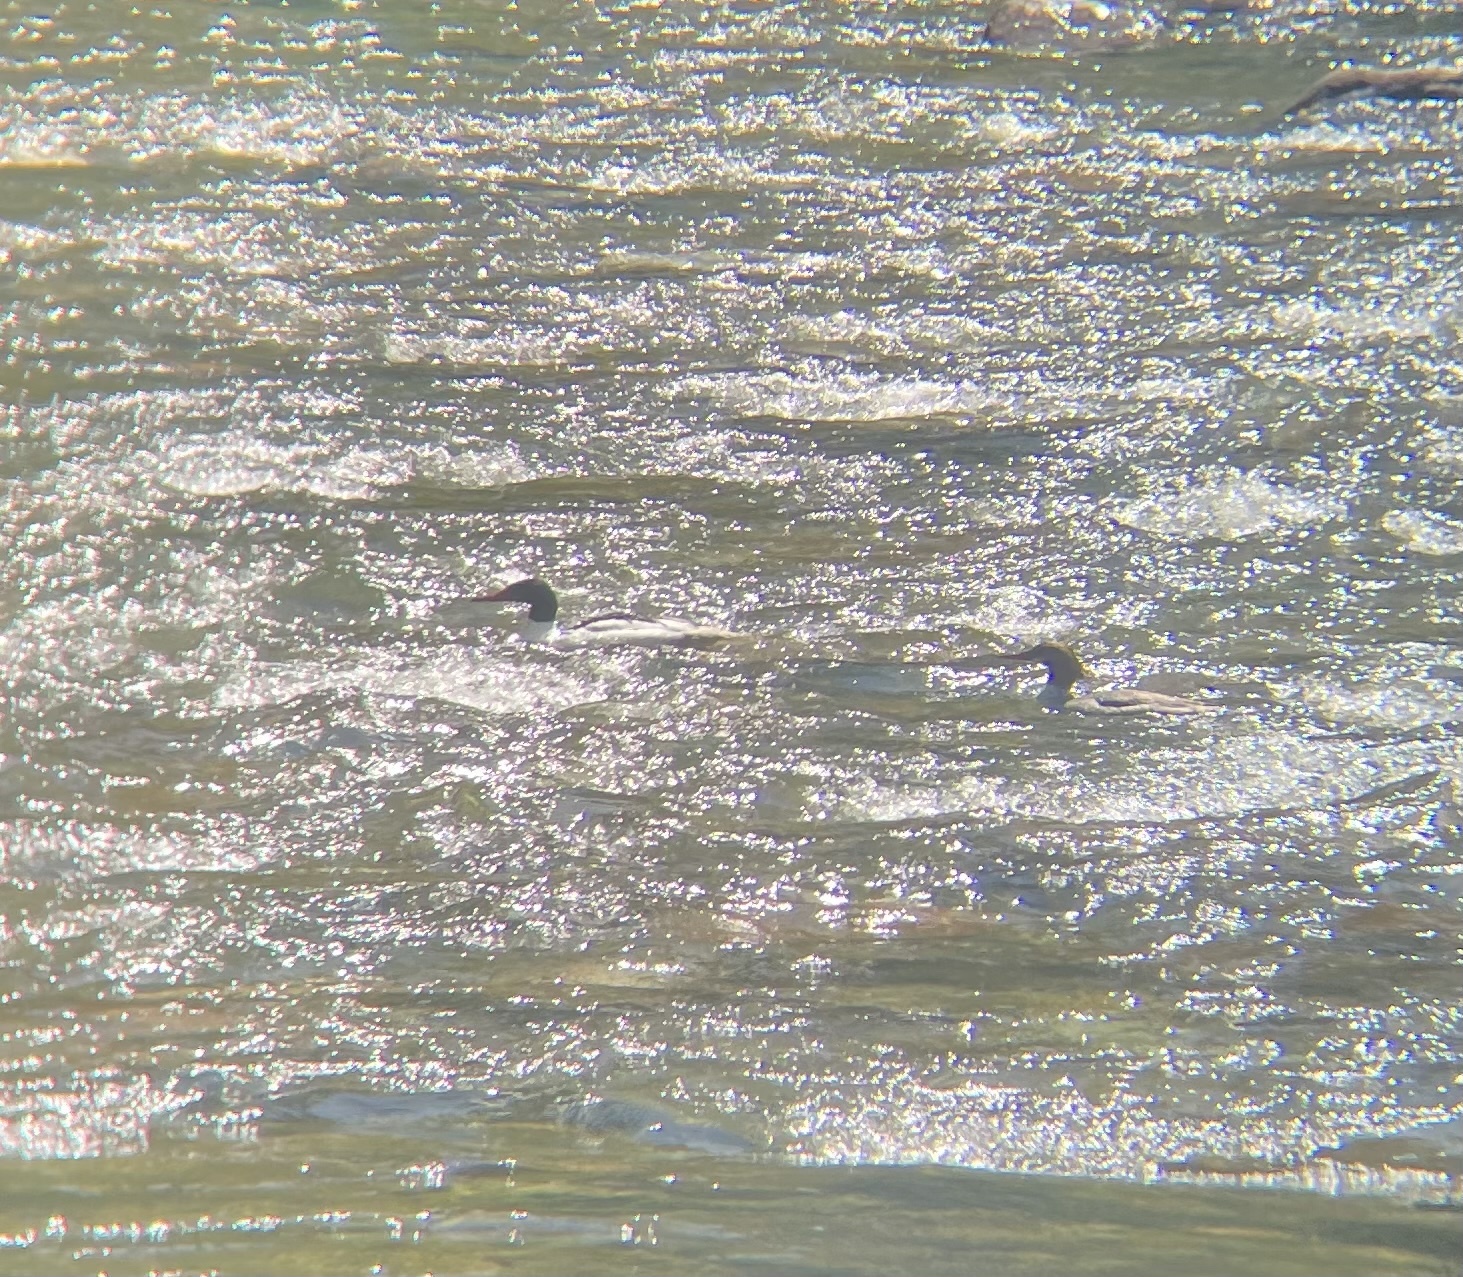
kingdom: Animalia
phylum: Chordata
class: Aves
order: Anseriformes
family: Anatidae
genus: Mergus
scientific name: Mergus merganser
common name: Common merganser
